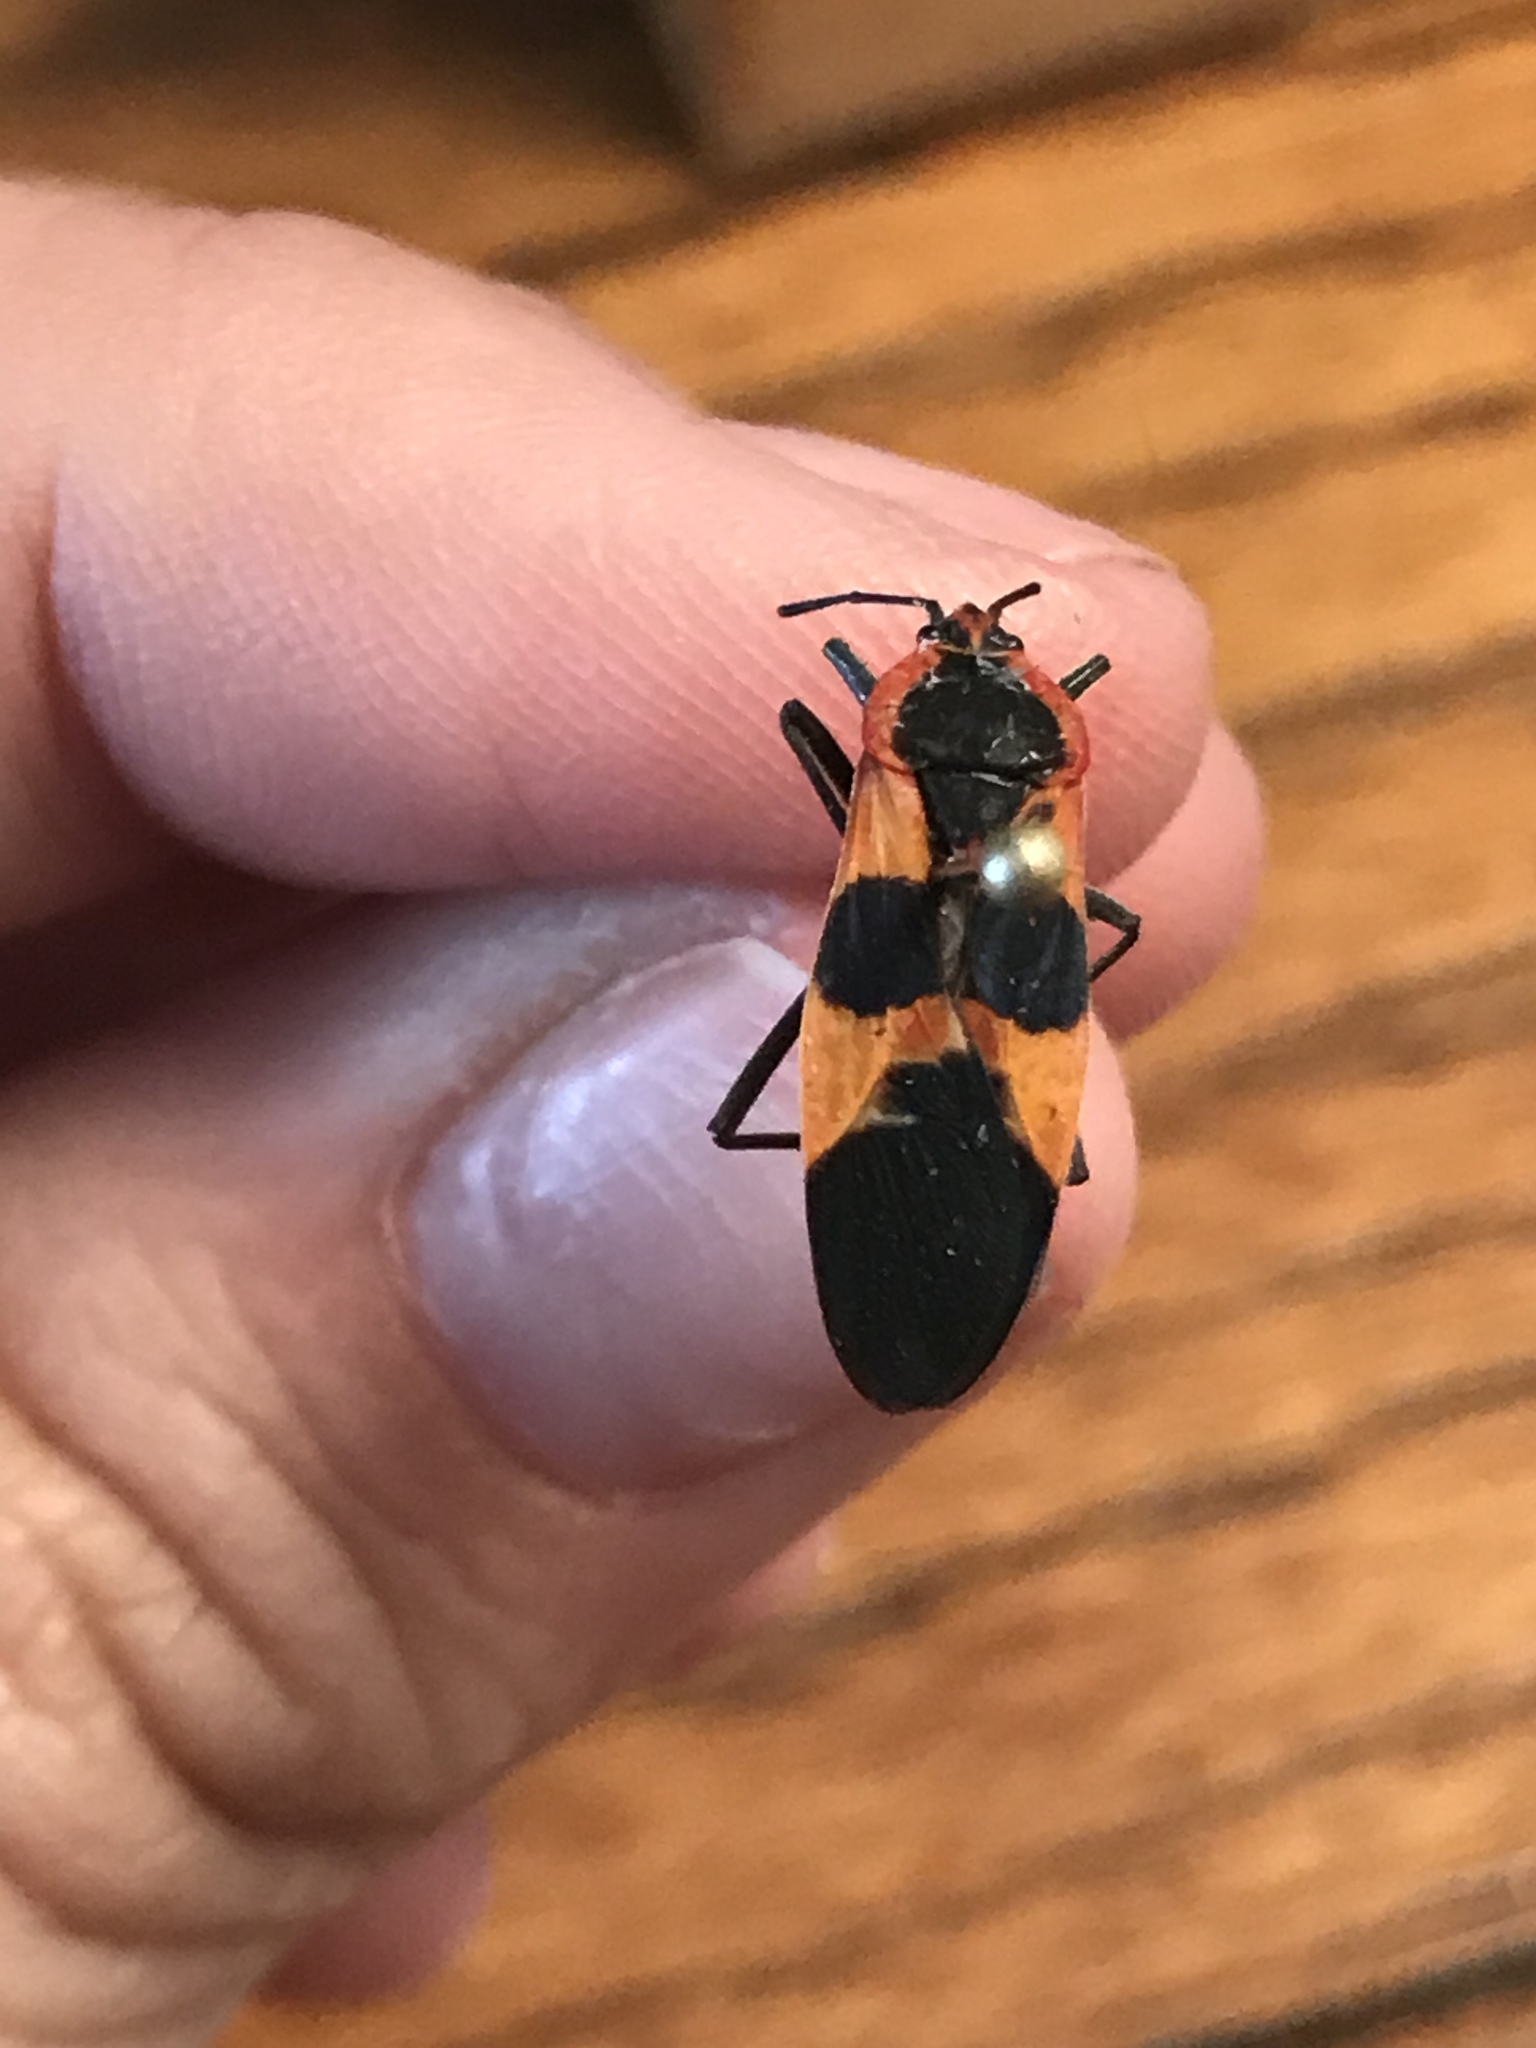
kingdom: Animalia
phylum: Arthropoda
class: Insecta
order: Hemiptera
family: Lygaeidae
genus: Oncopeltus
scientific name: Oncopeltus fasciatus
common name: Large milkweed bug
